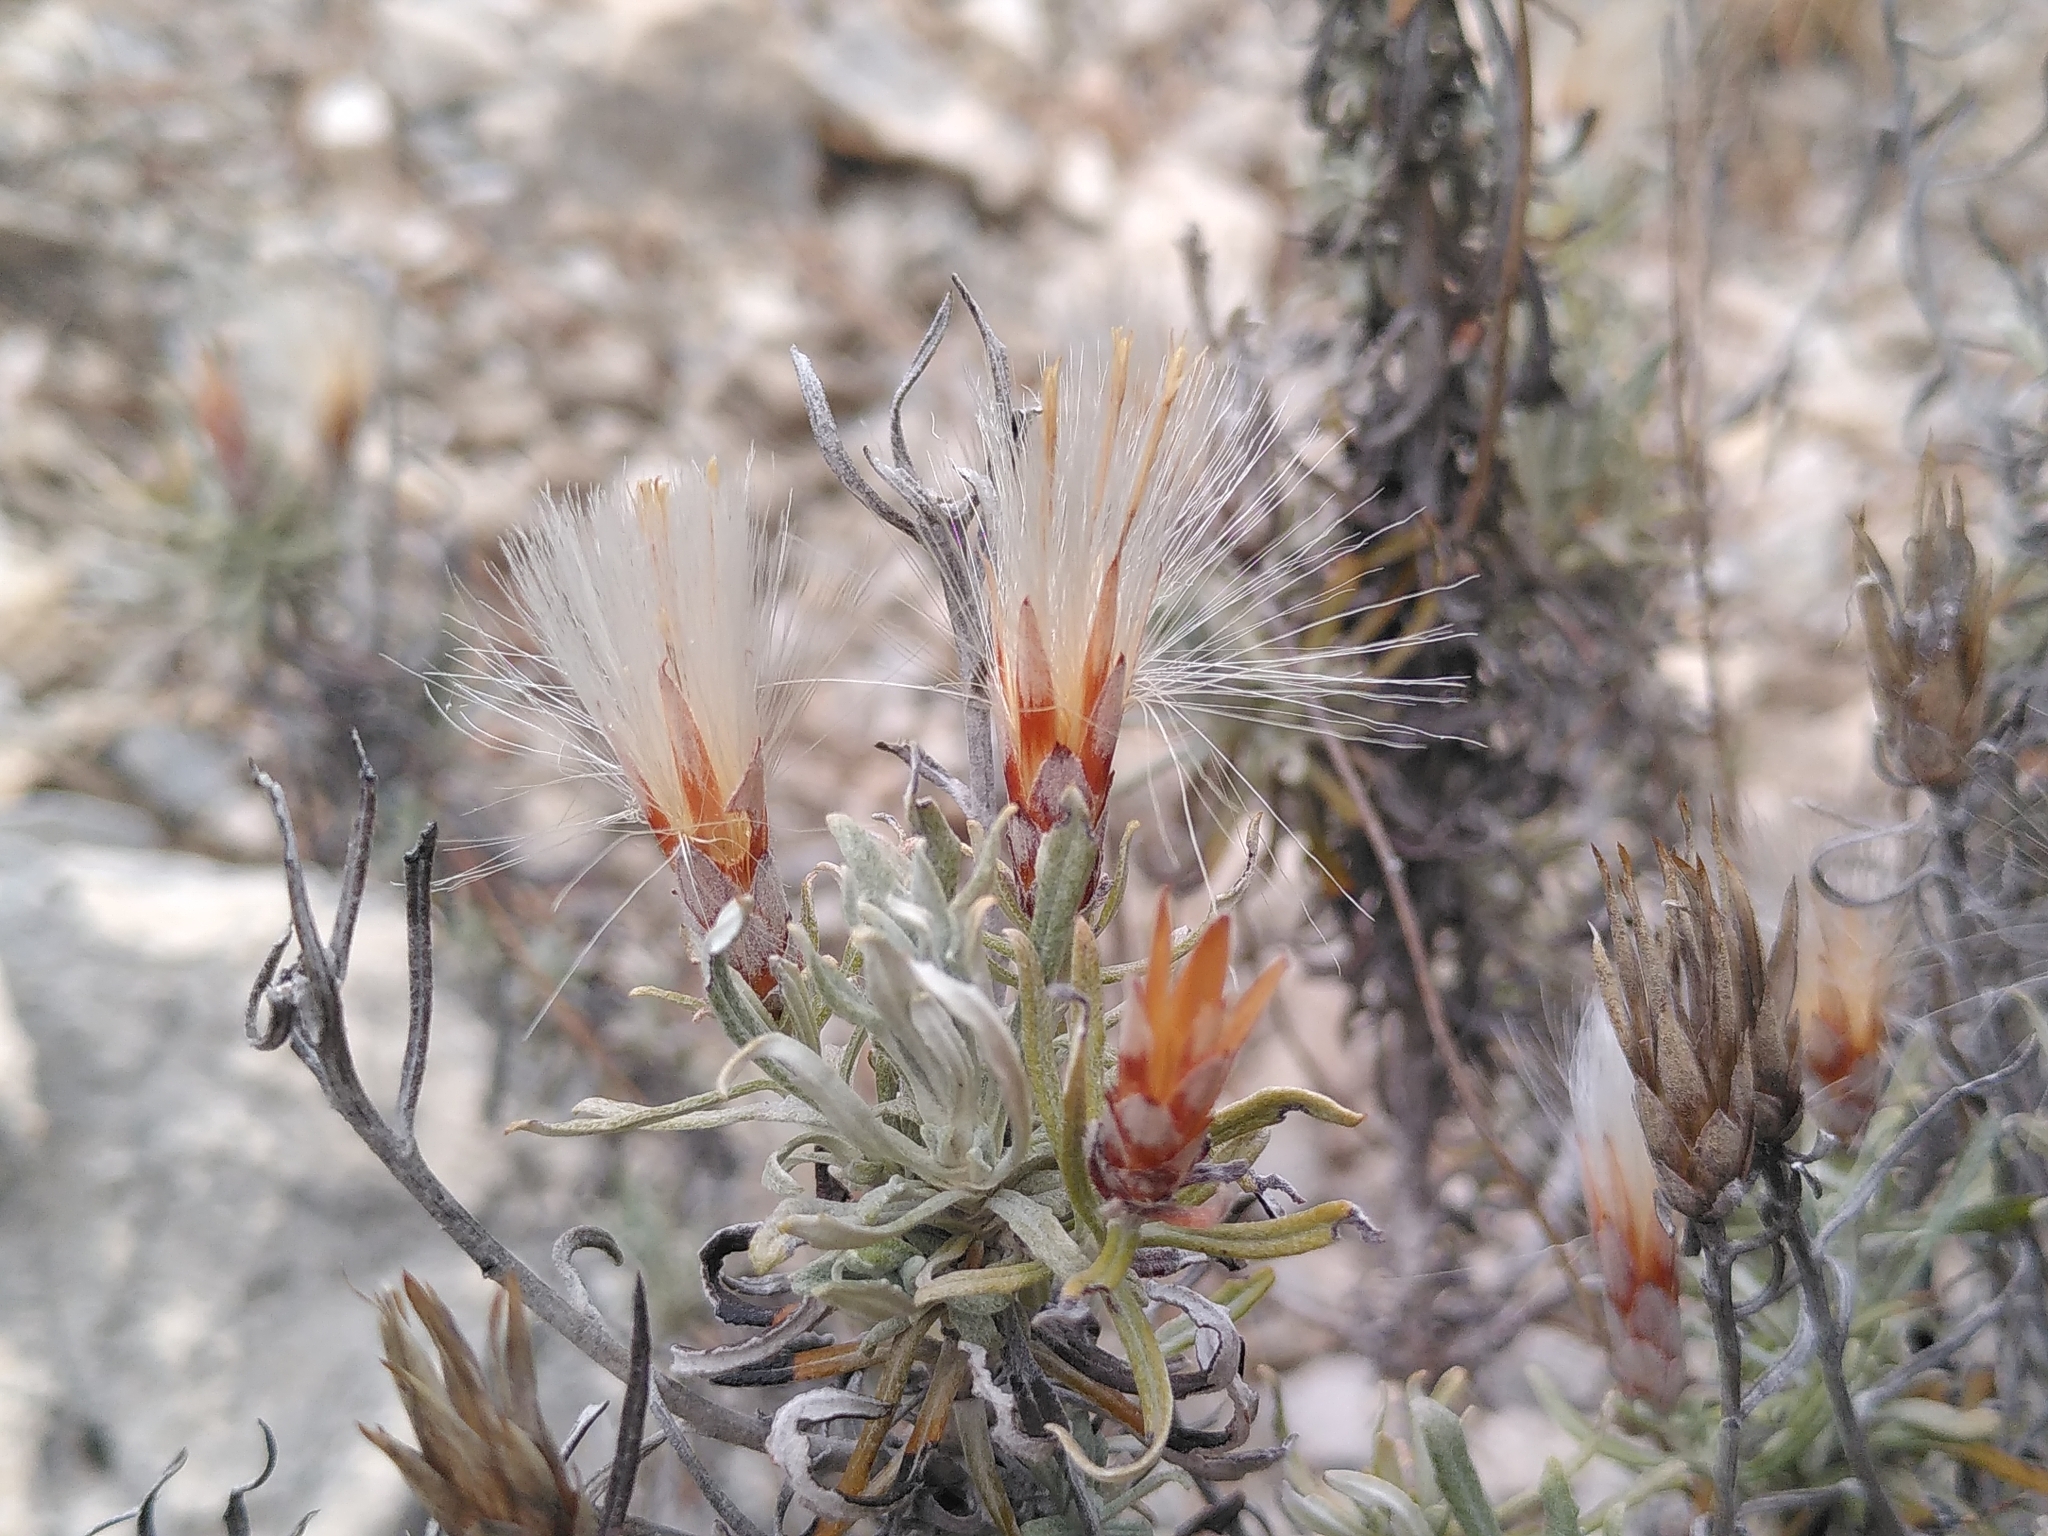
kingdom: Plantae
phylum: Tracheophyta
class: Magnoliopsida
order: Asterales
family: Asteraceae
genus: Staehelina
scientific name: Staehelina dubia
